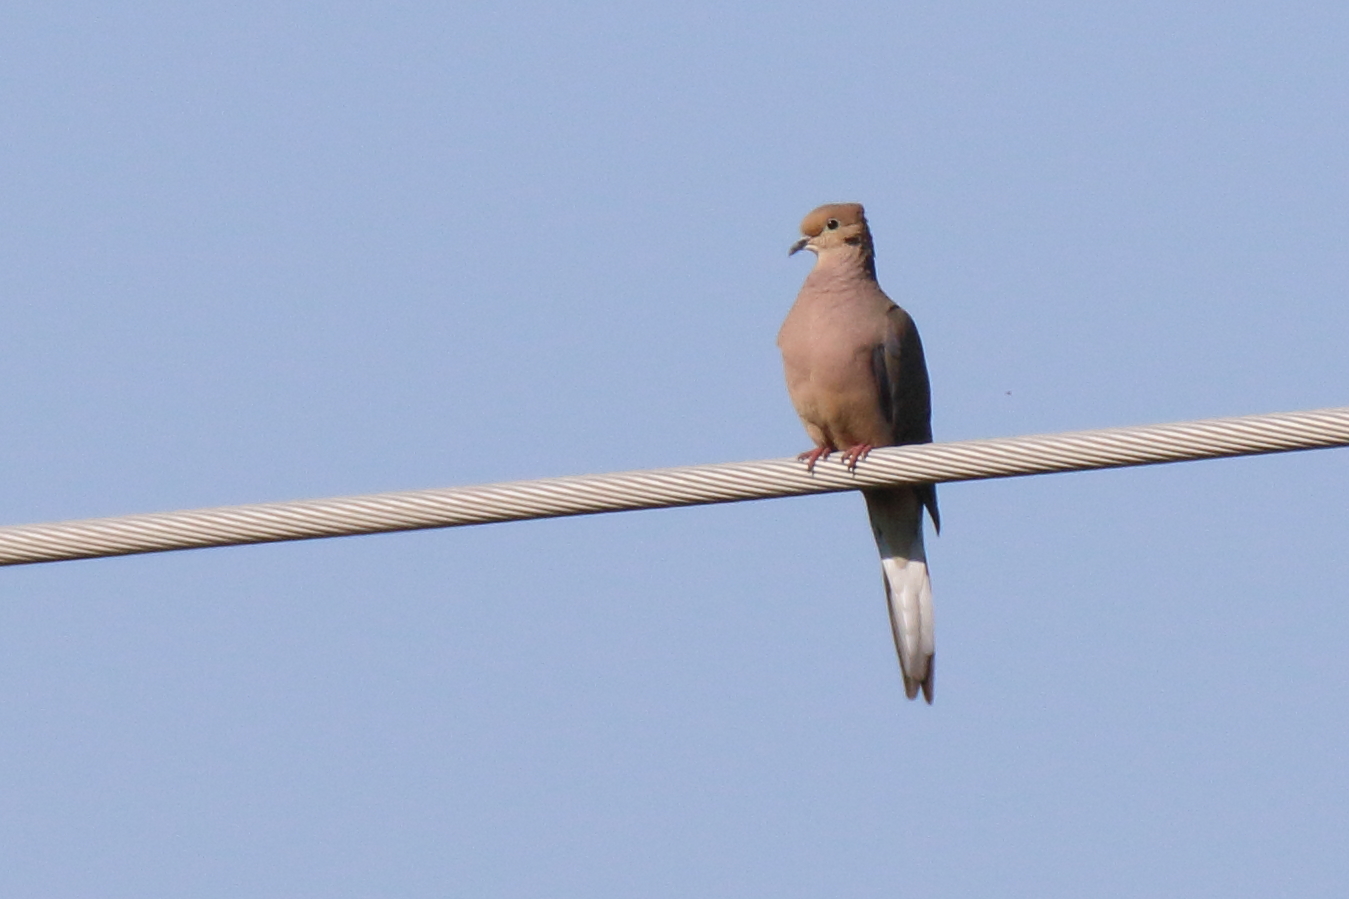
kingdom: Animalia
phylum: Chordata
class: Aves
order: Columbiformes
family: Columbidae
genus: Zenaida
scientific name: Zenaida macroura
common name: Mourning dove
